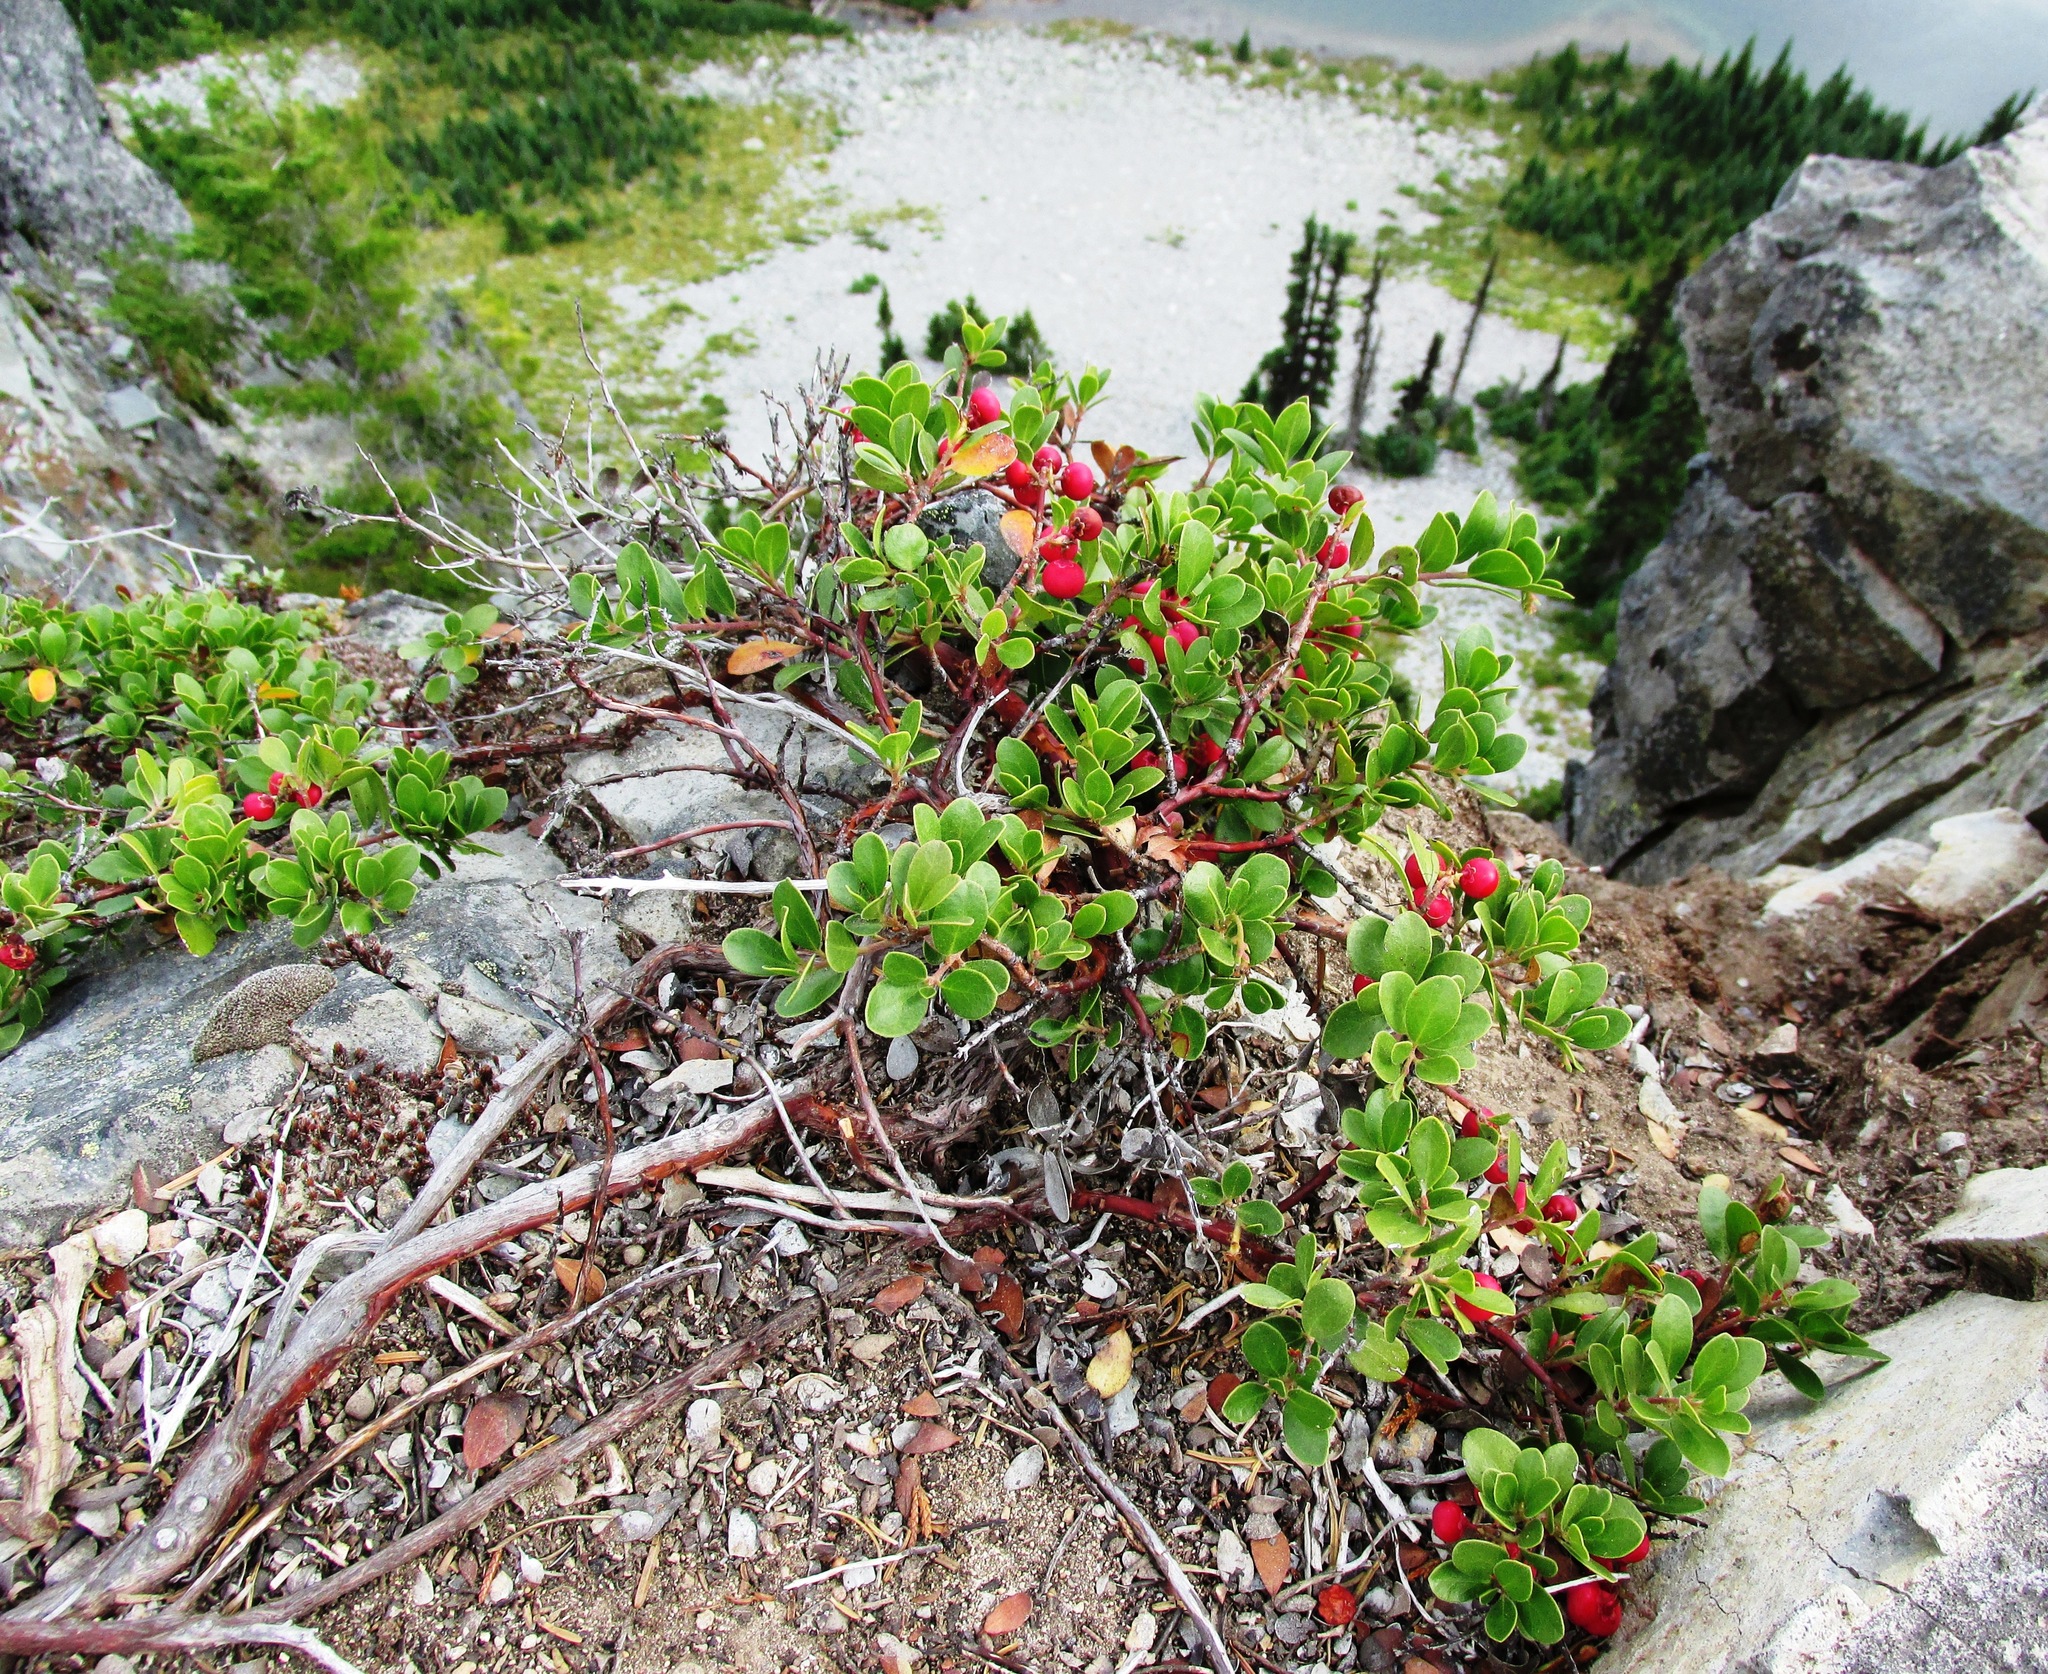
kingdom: Plantae
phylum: Tracheophyta
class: Magnoliopsida
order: Ericales
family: Ericaceae
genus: Arctostaphylos
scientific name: Arctostaphylos uva-ursi
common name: Bearberry
